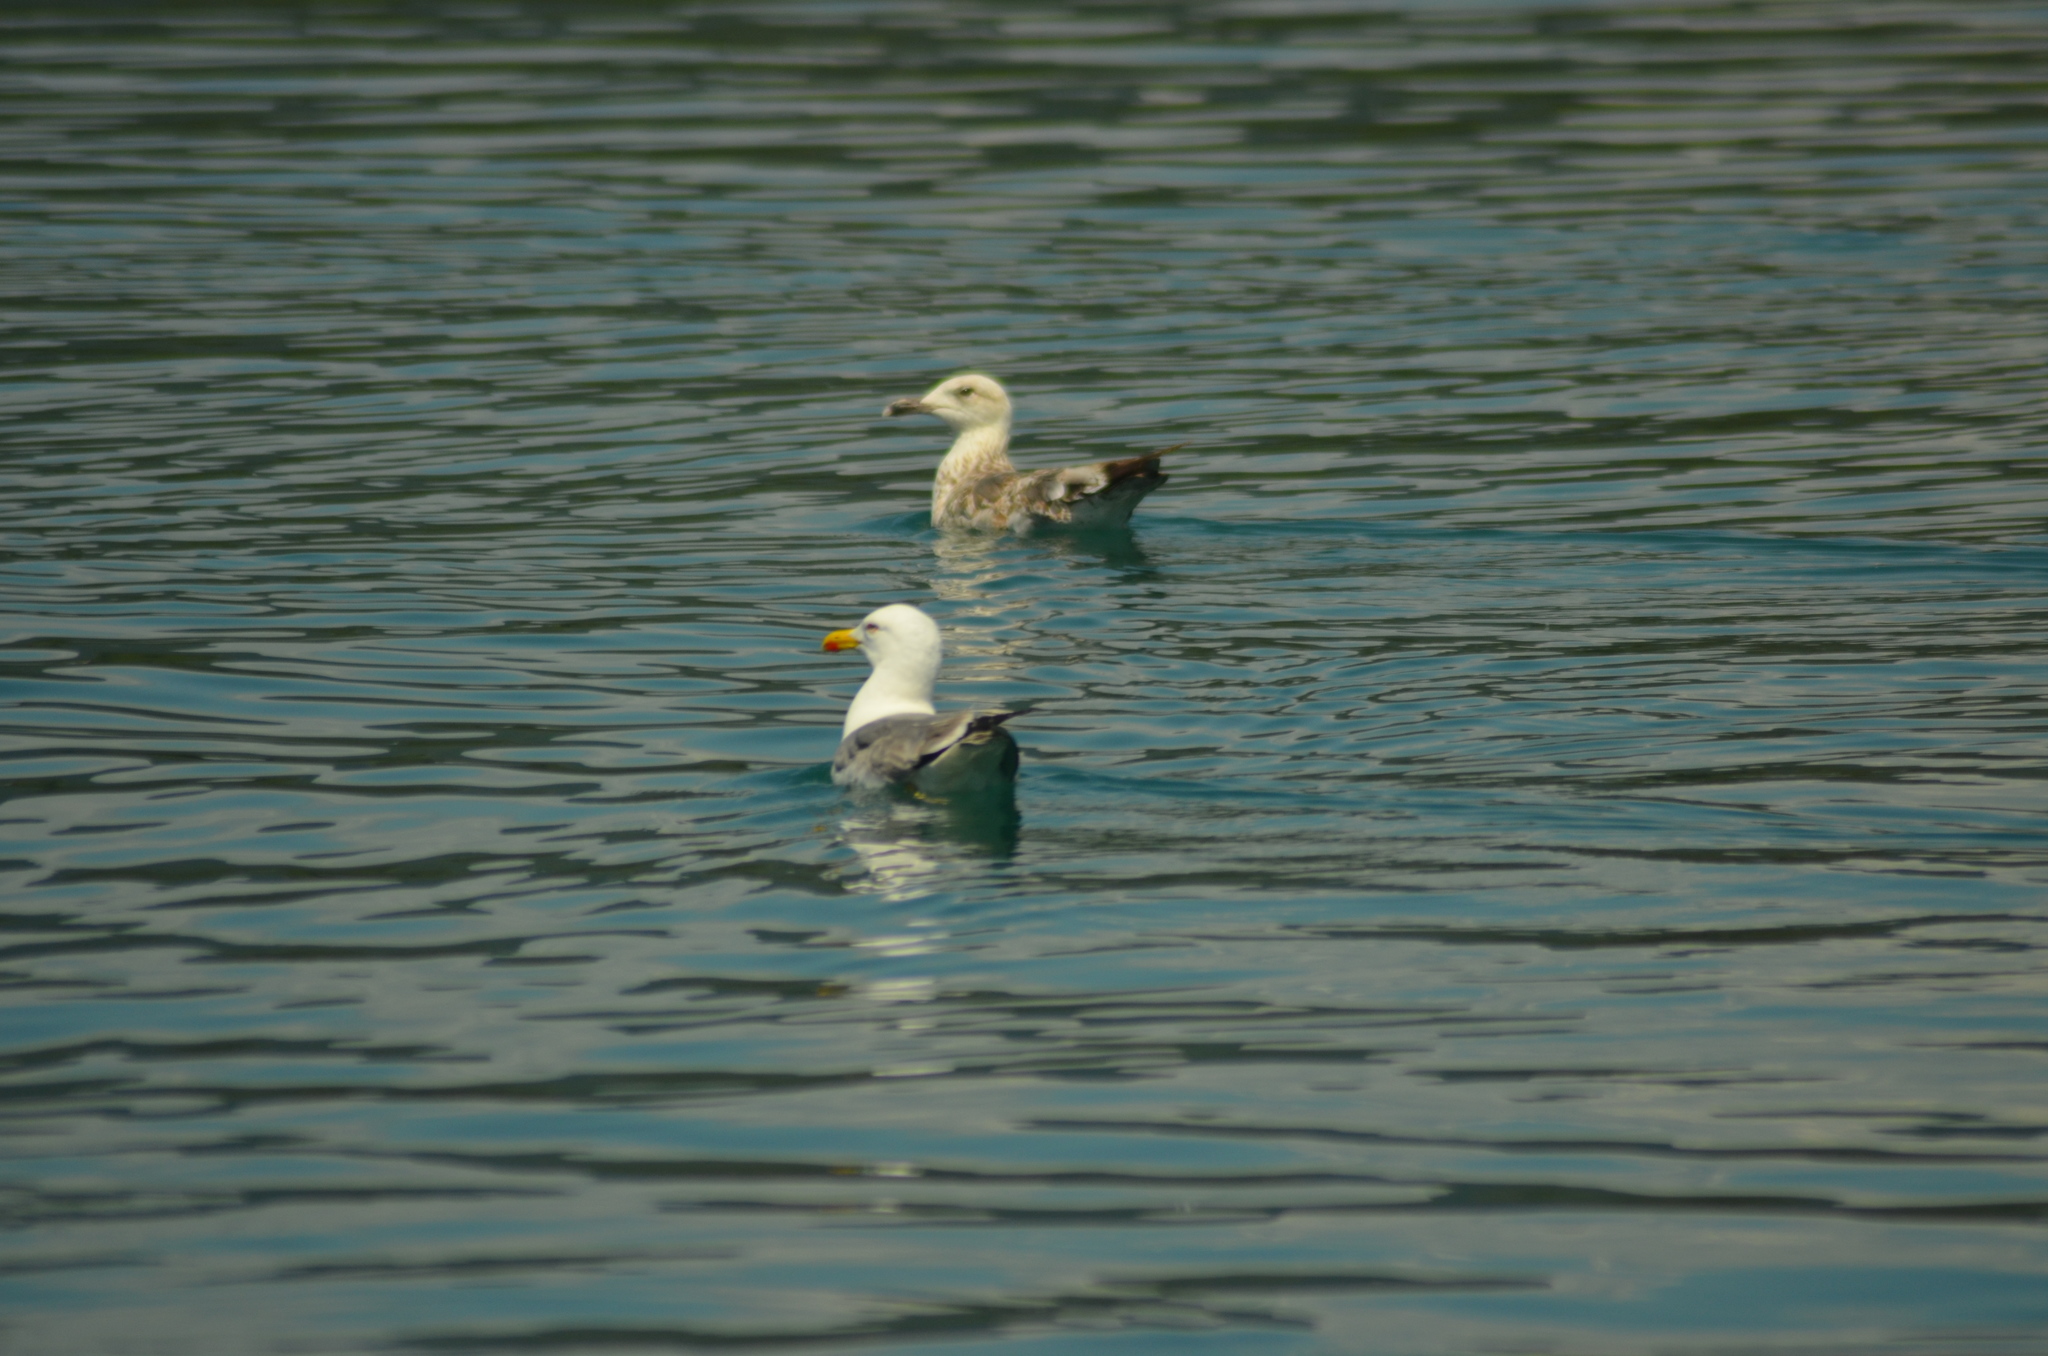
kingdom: Animalia
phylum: Chordata
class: Aves
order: Charadriiformes
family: Laridae
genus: Larus
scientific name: Larus michahellis
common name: Yellow-legged gull
